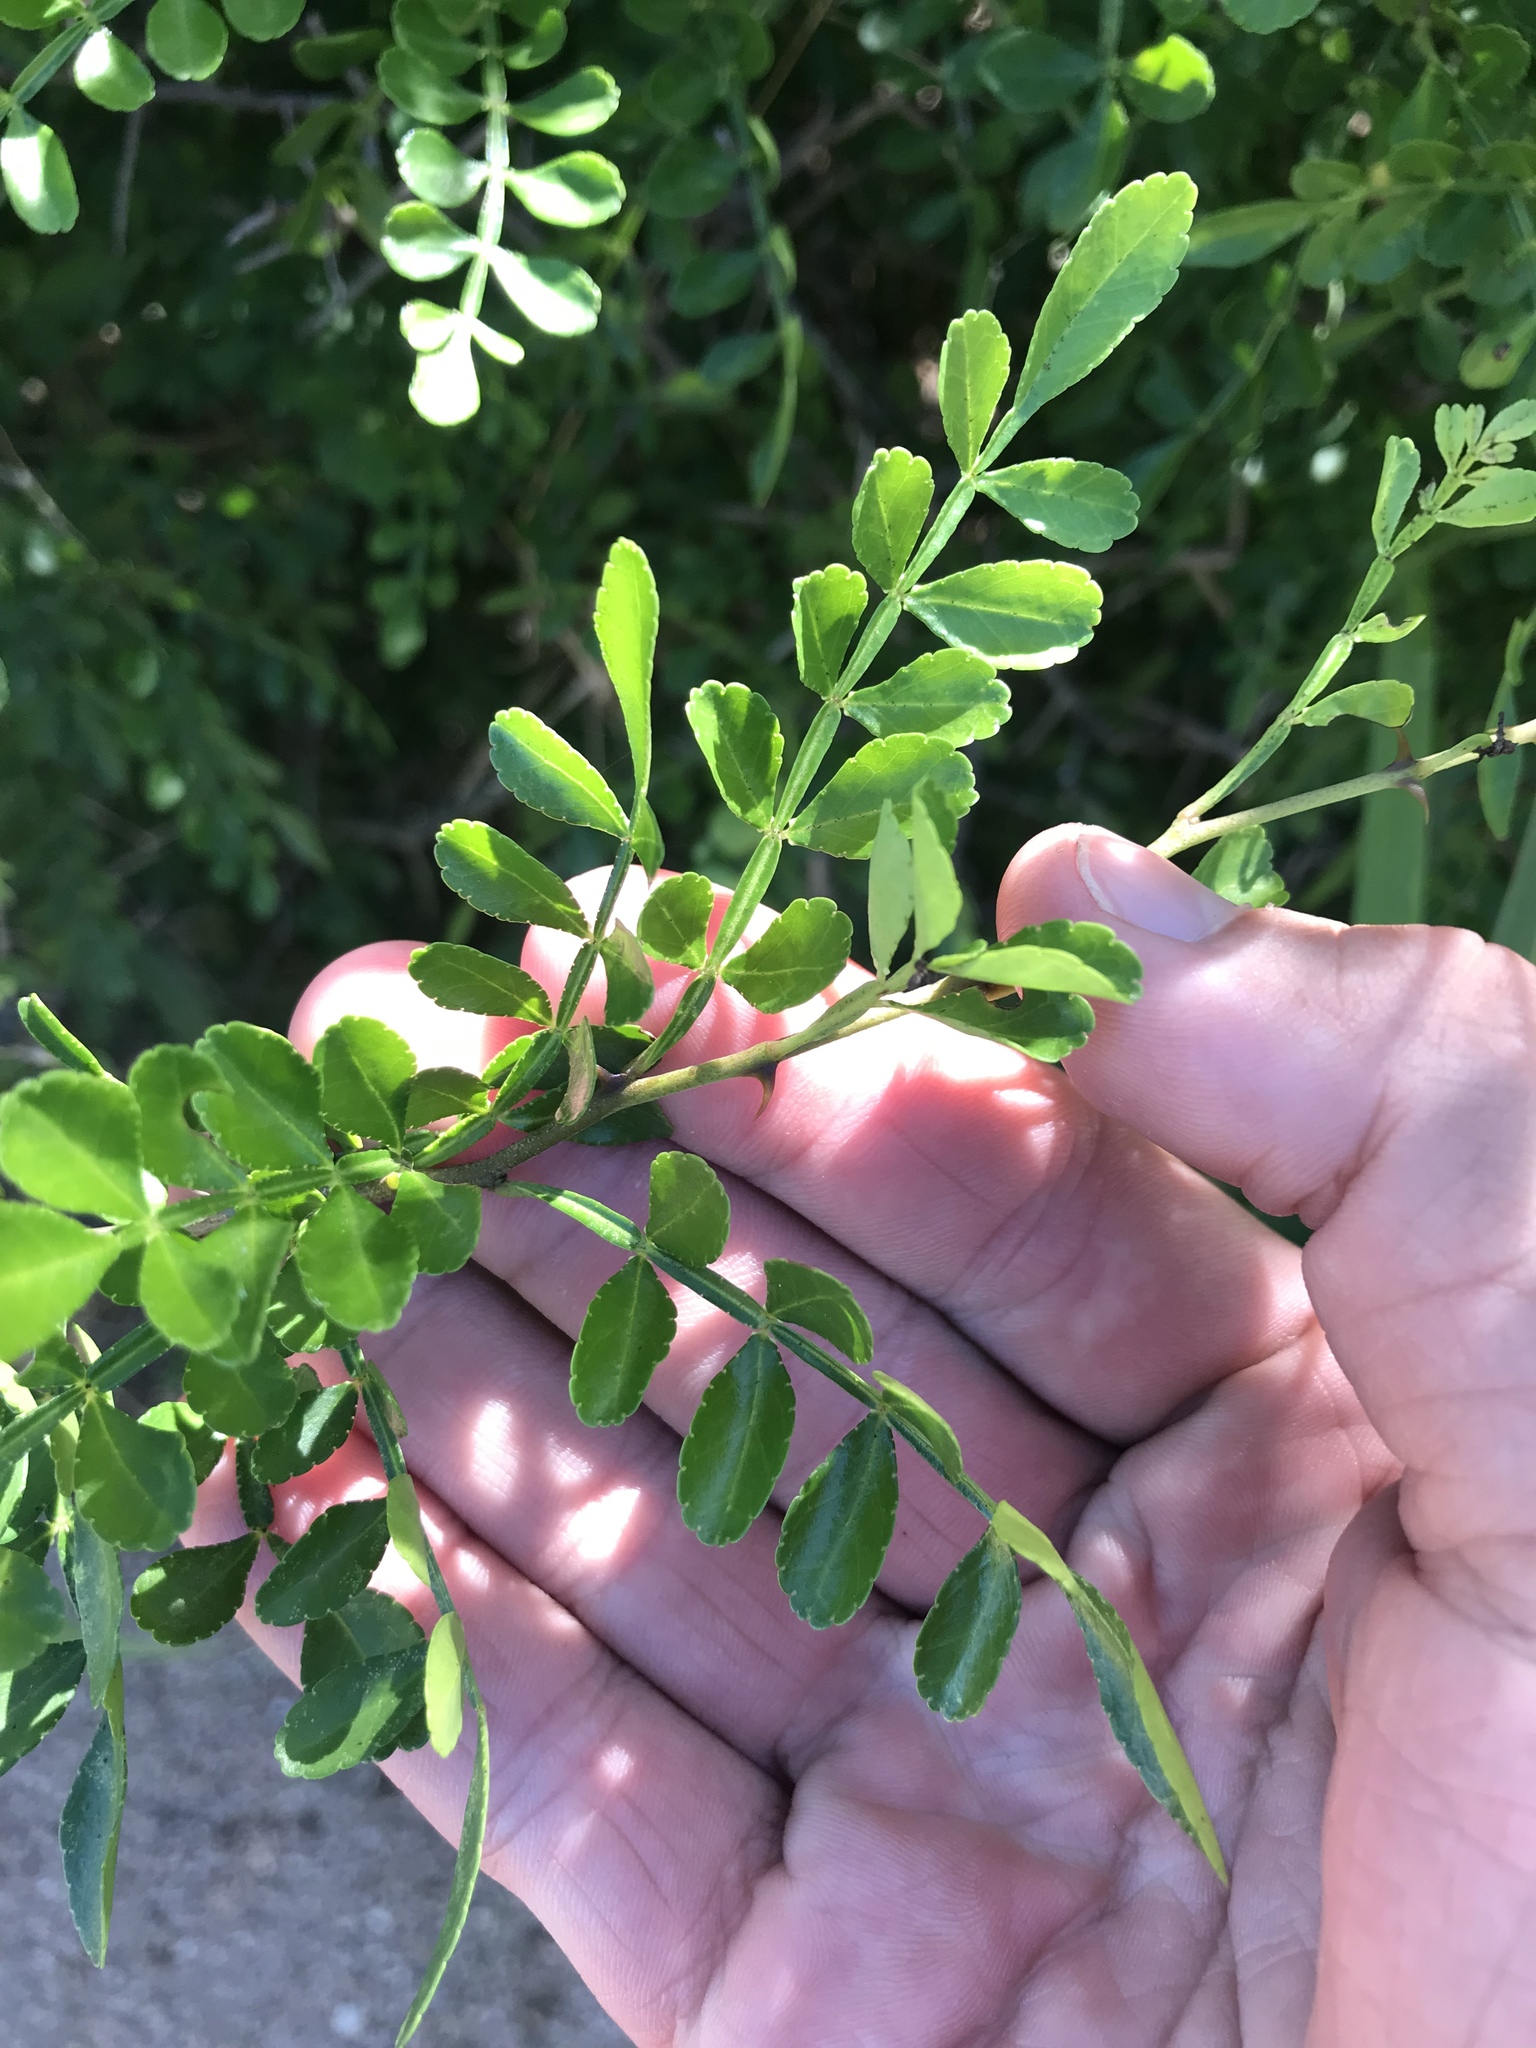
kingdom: Plantae
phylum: Tracheophyta
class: Magnoliopsida
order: Sapindales
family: Rutaceae
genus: Zanthoxylum
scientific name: Zanthoxylum fagara
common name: Lime prickly-ash
